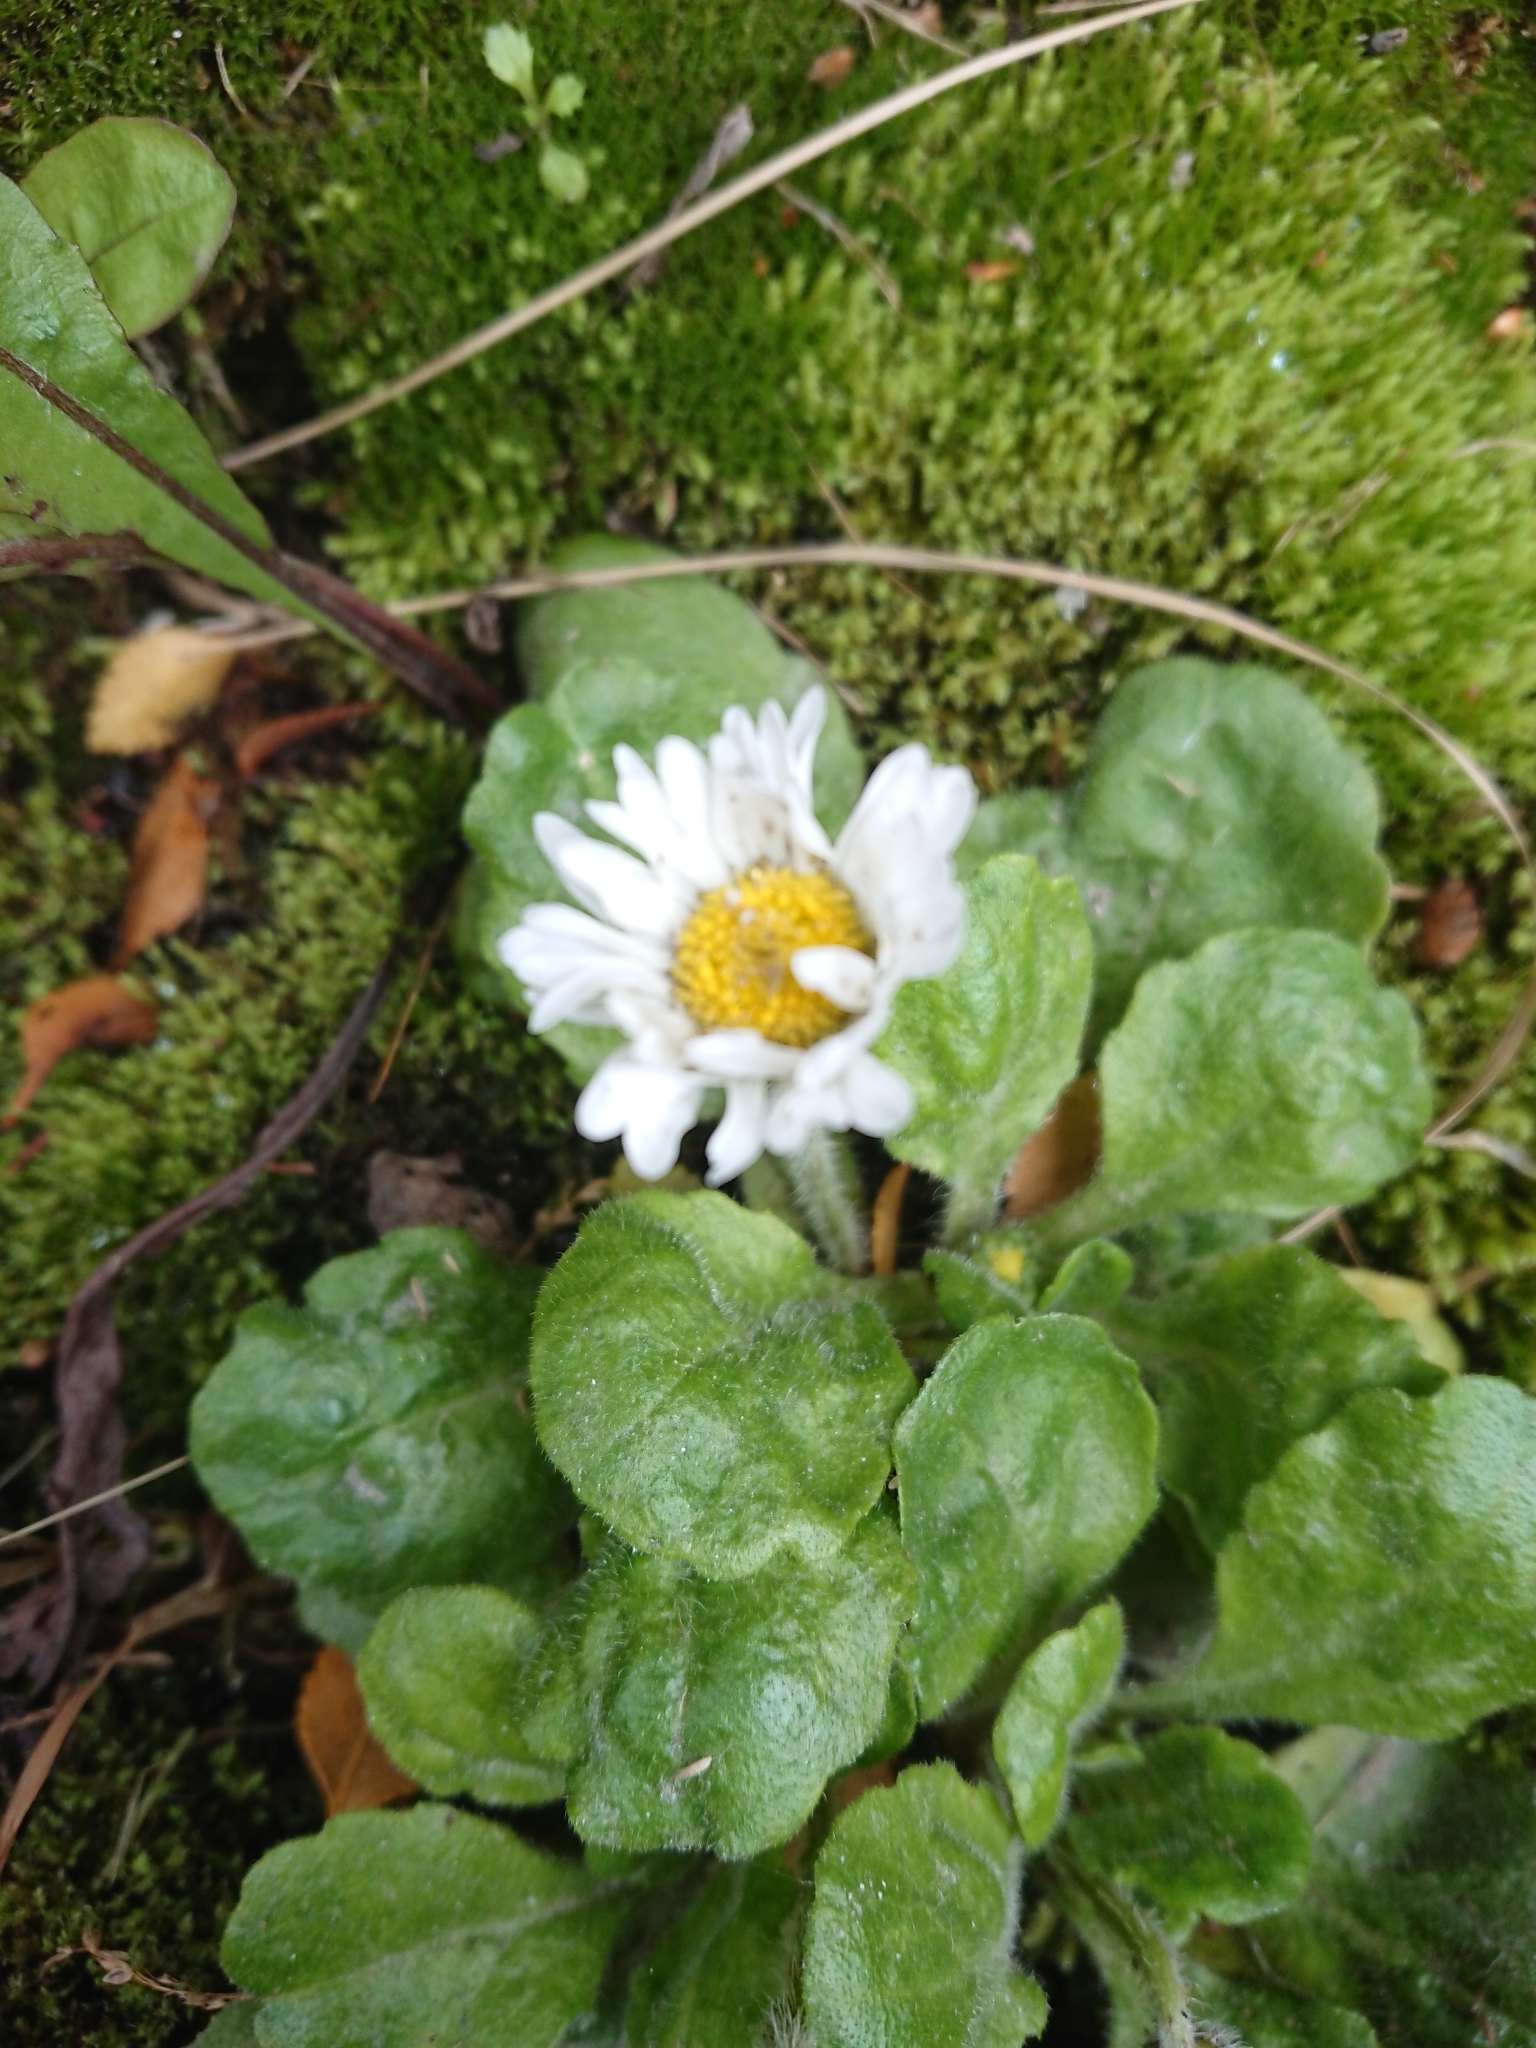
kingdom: Plantae
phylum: Tracheophyta
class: Magnoliopsida
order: Asterales
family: Asteraceae
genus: Bellis
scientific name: Bellis perennis
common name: Lawndaisy
